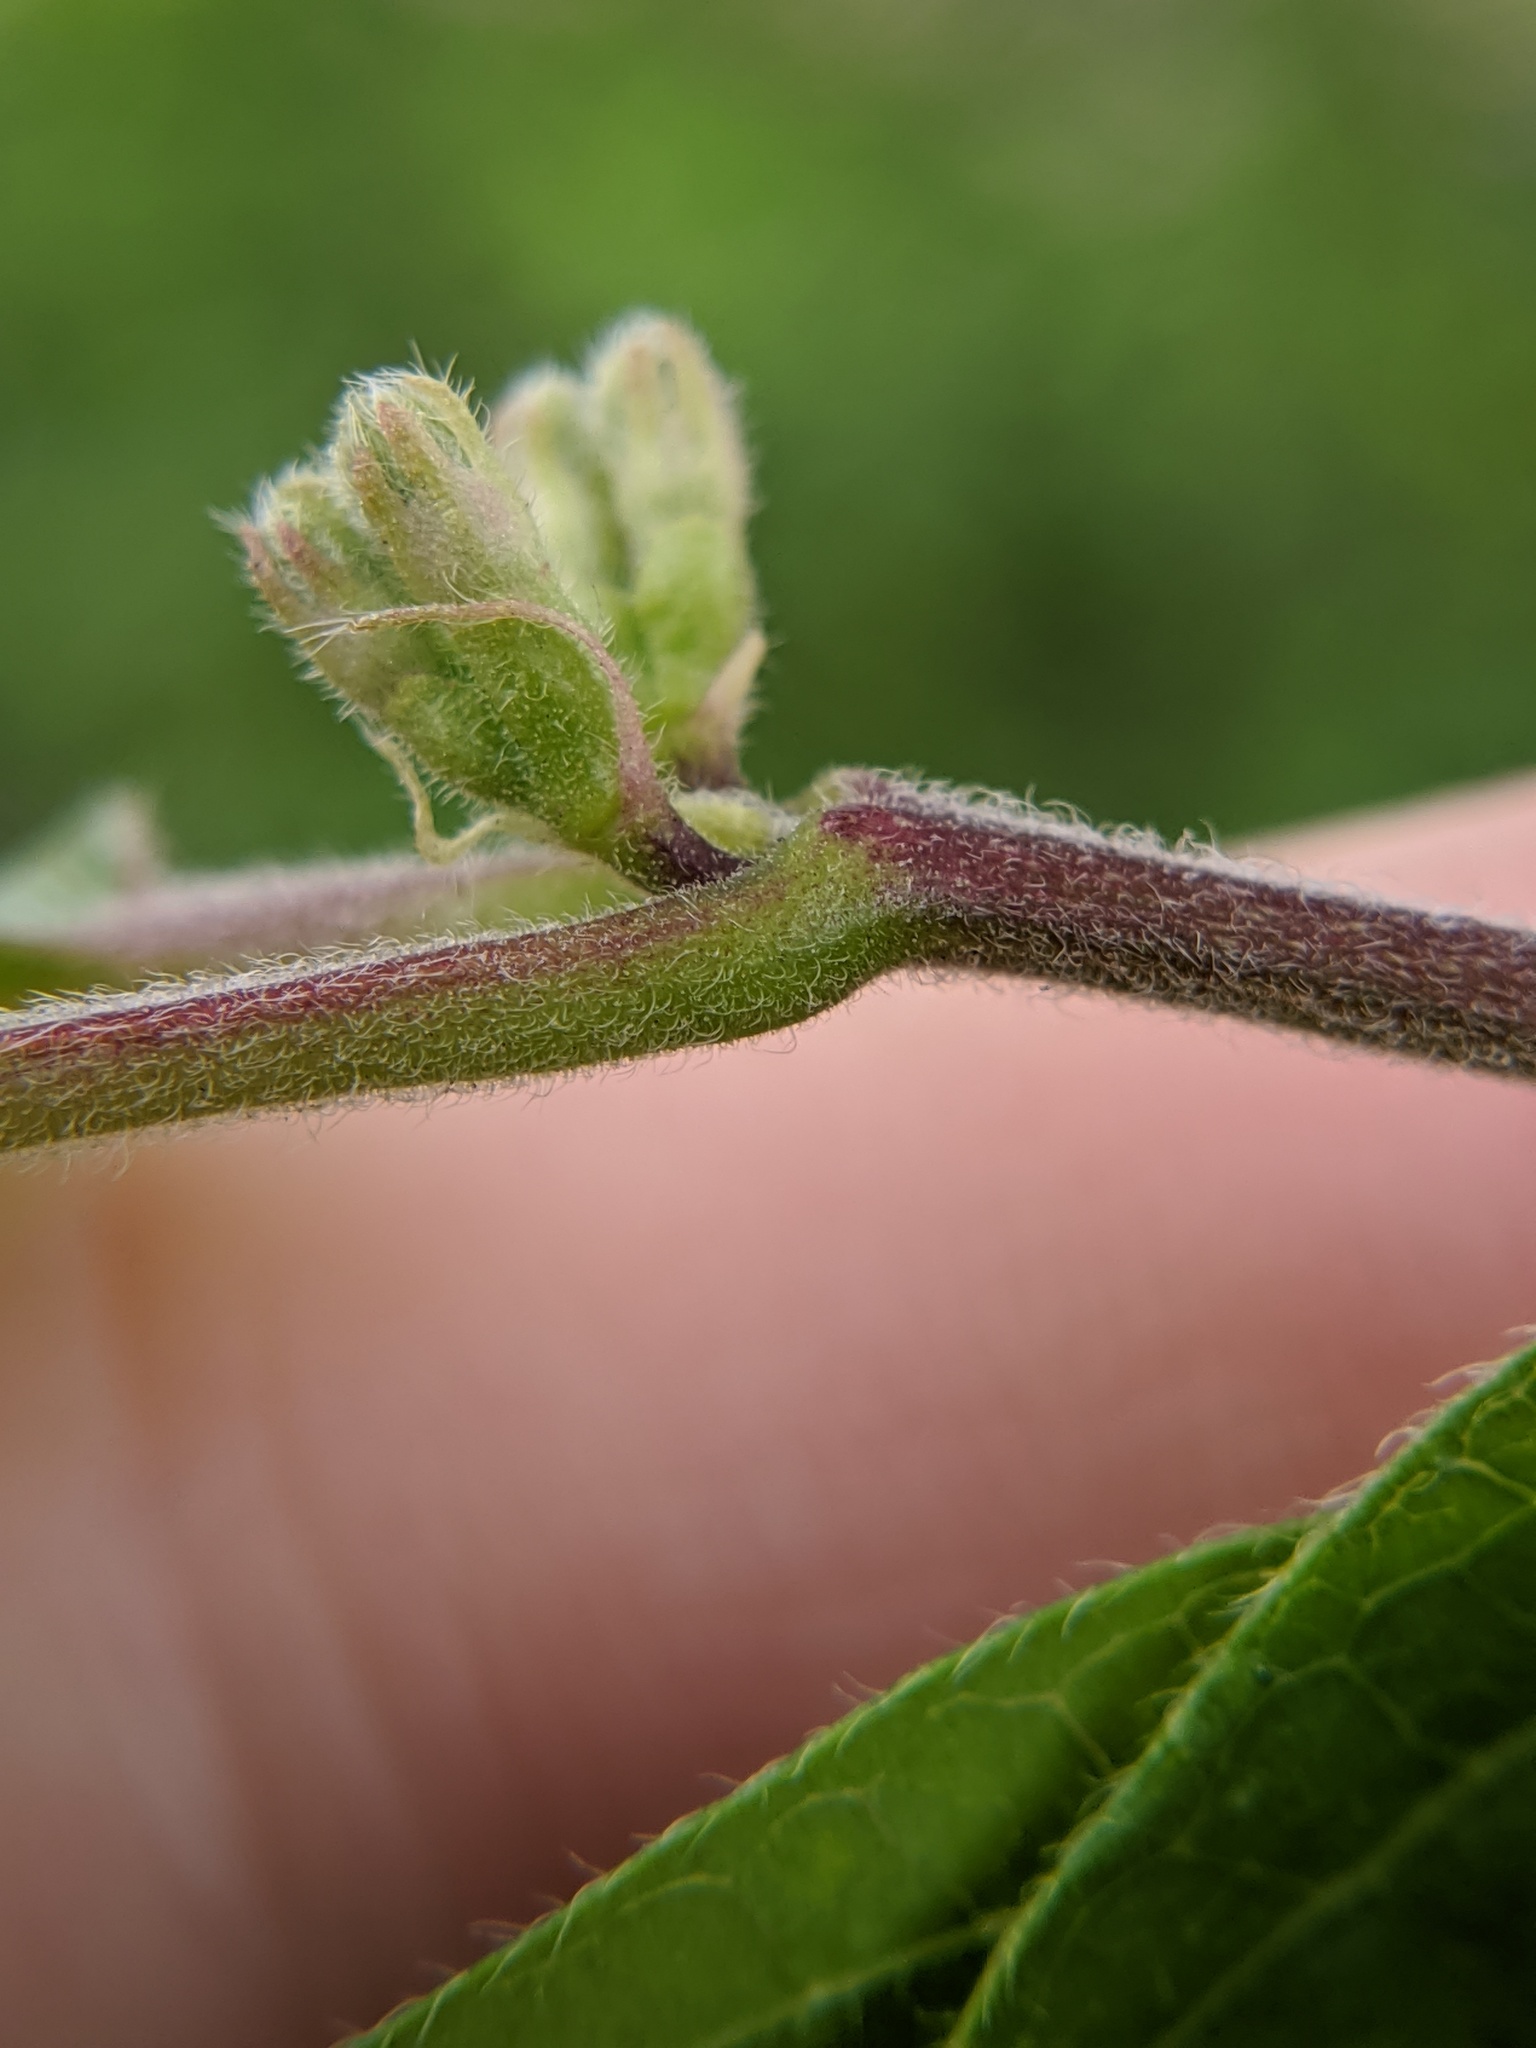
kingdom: Plantae
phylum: Tracheophyta
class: Magnoliopsida
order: Dipsacales
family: Caprifoliaceae
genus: Lonicera
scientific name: Lonicera maackii
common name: Amur honeysuckle
